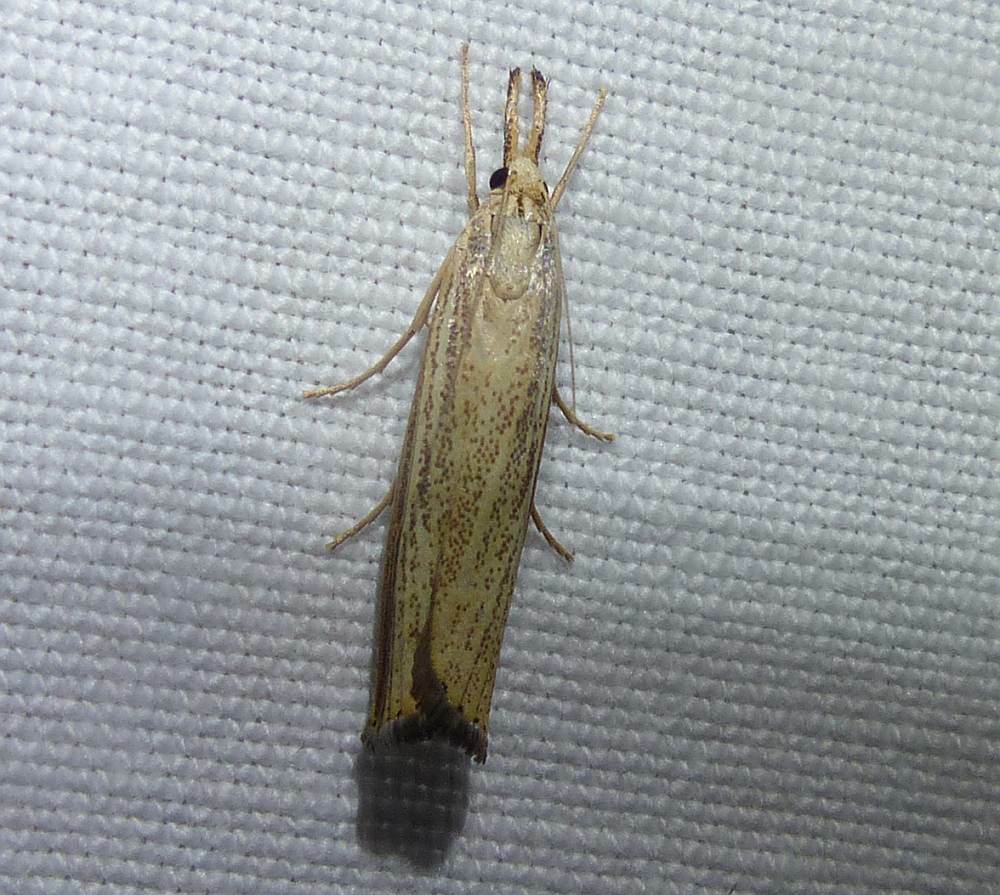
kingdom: Animalia
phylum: Arthropoda
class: Insecta
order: Lepidoptera
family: Crambidae
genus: Agriphila
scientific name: Agriphila vulgivagellus
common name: Vagabond crambus moth
